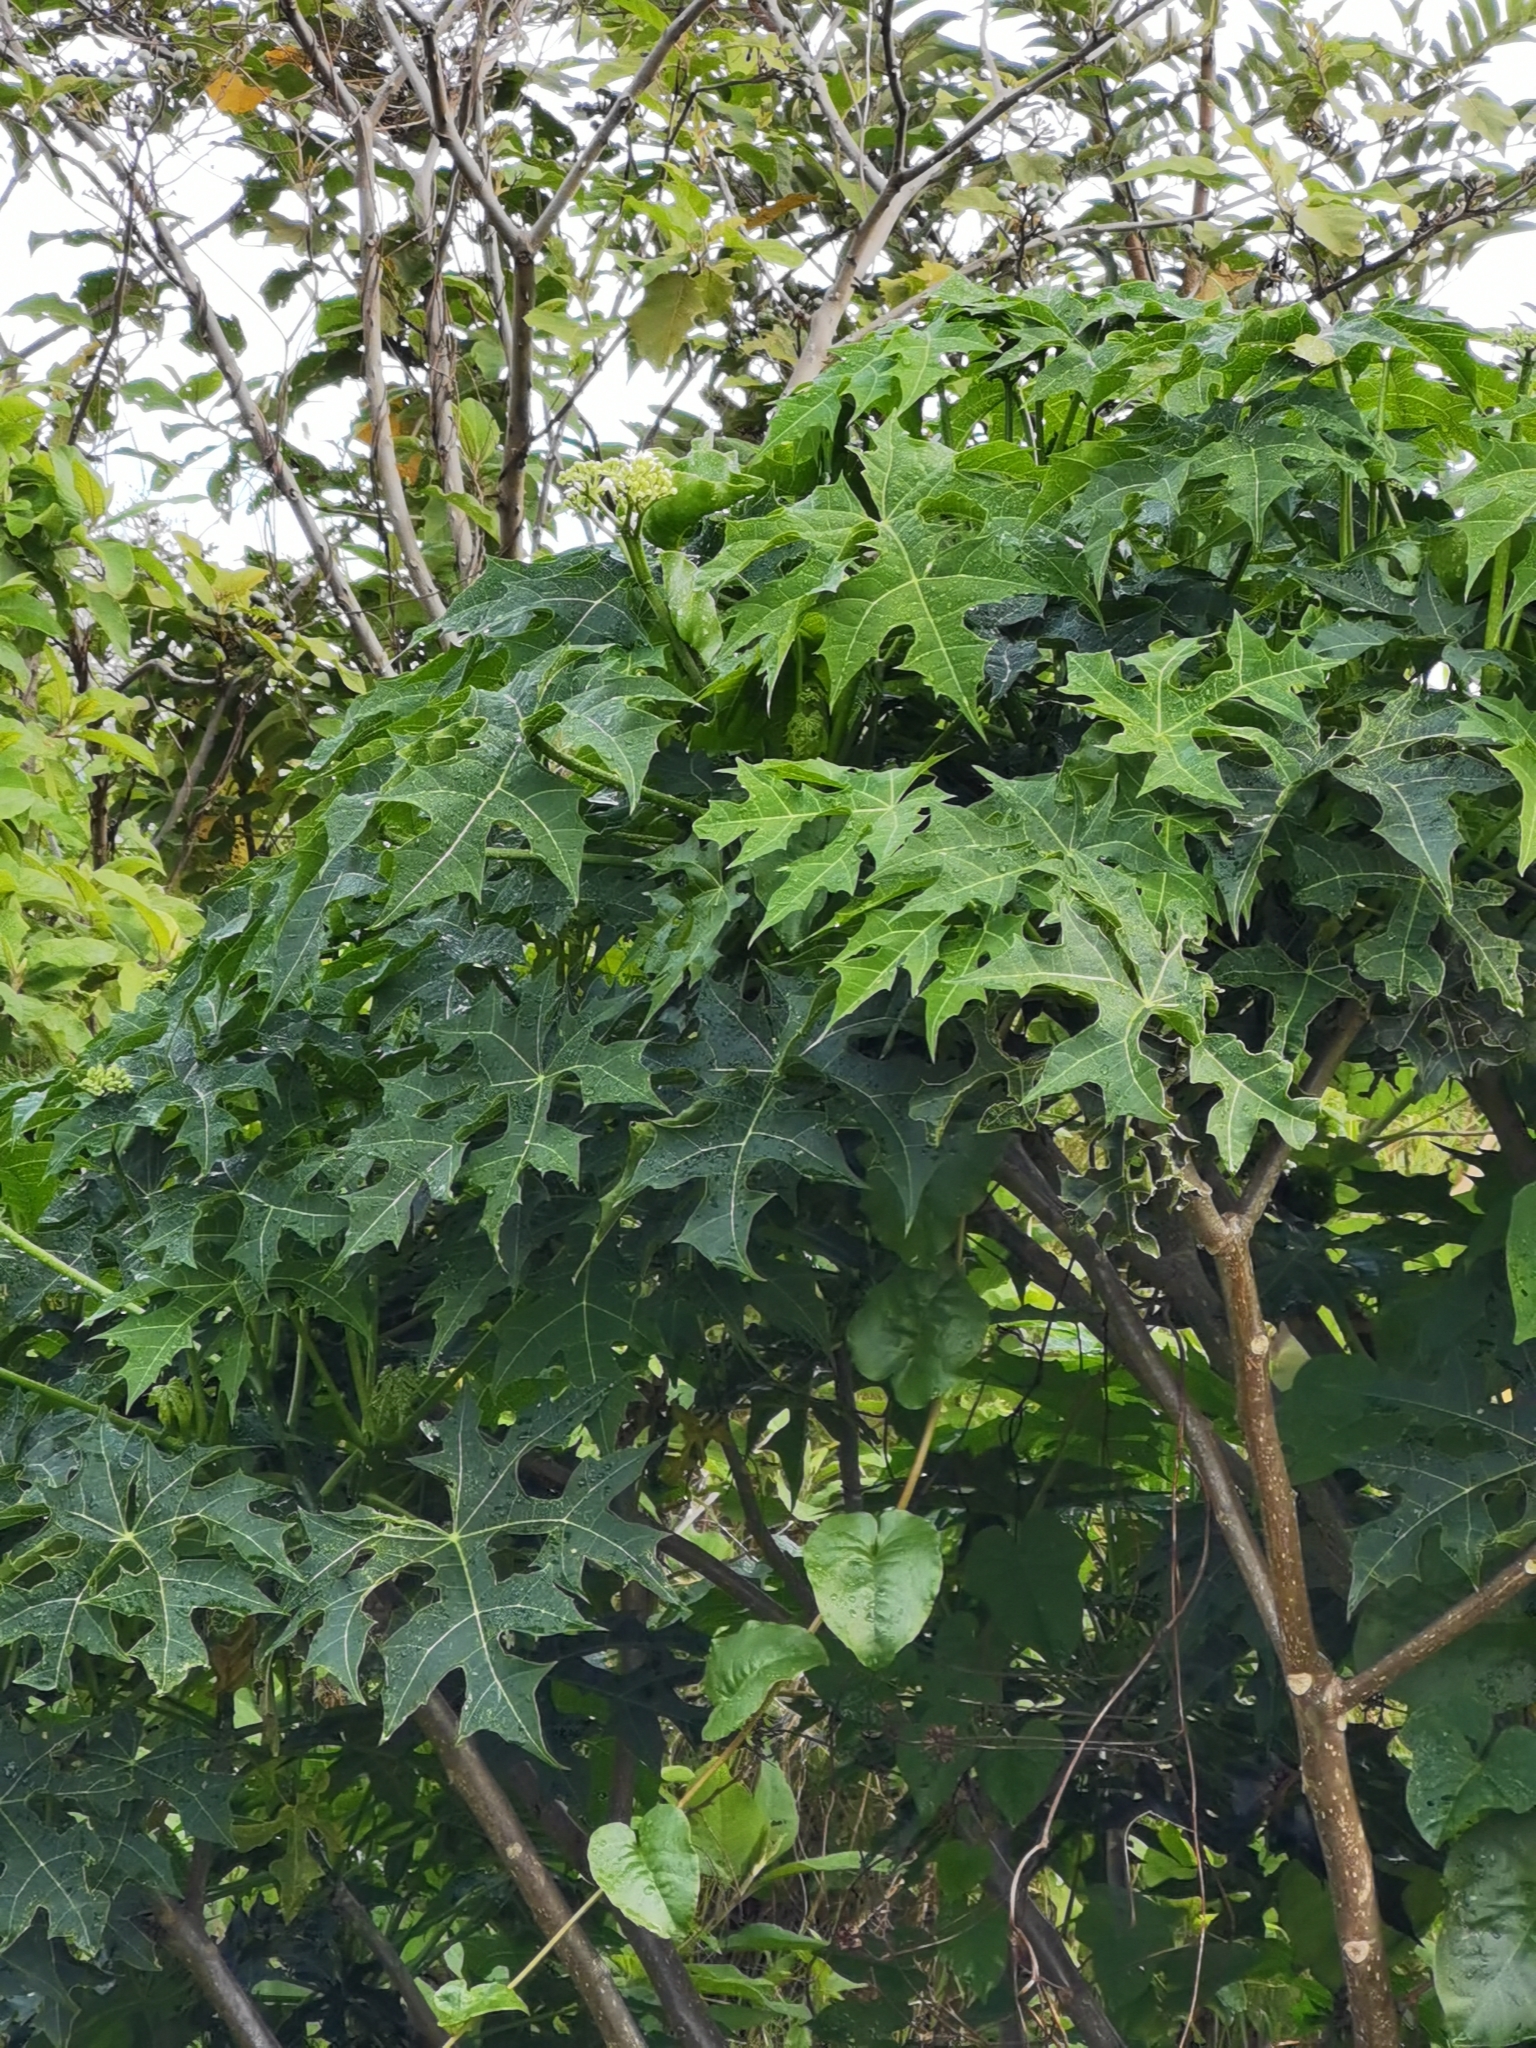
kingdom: Plantae
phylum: Tracheophyta
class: Magnoliopsida
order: Malpighiales
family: Euphorbiaceae
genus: Cnidoscolus
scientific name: Cnidoscolus aconitifolius
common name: Cabbage-star
